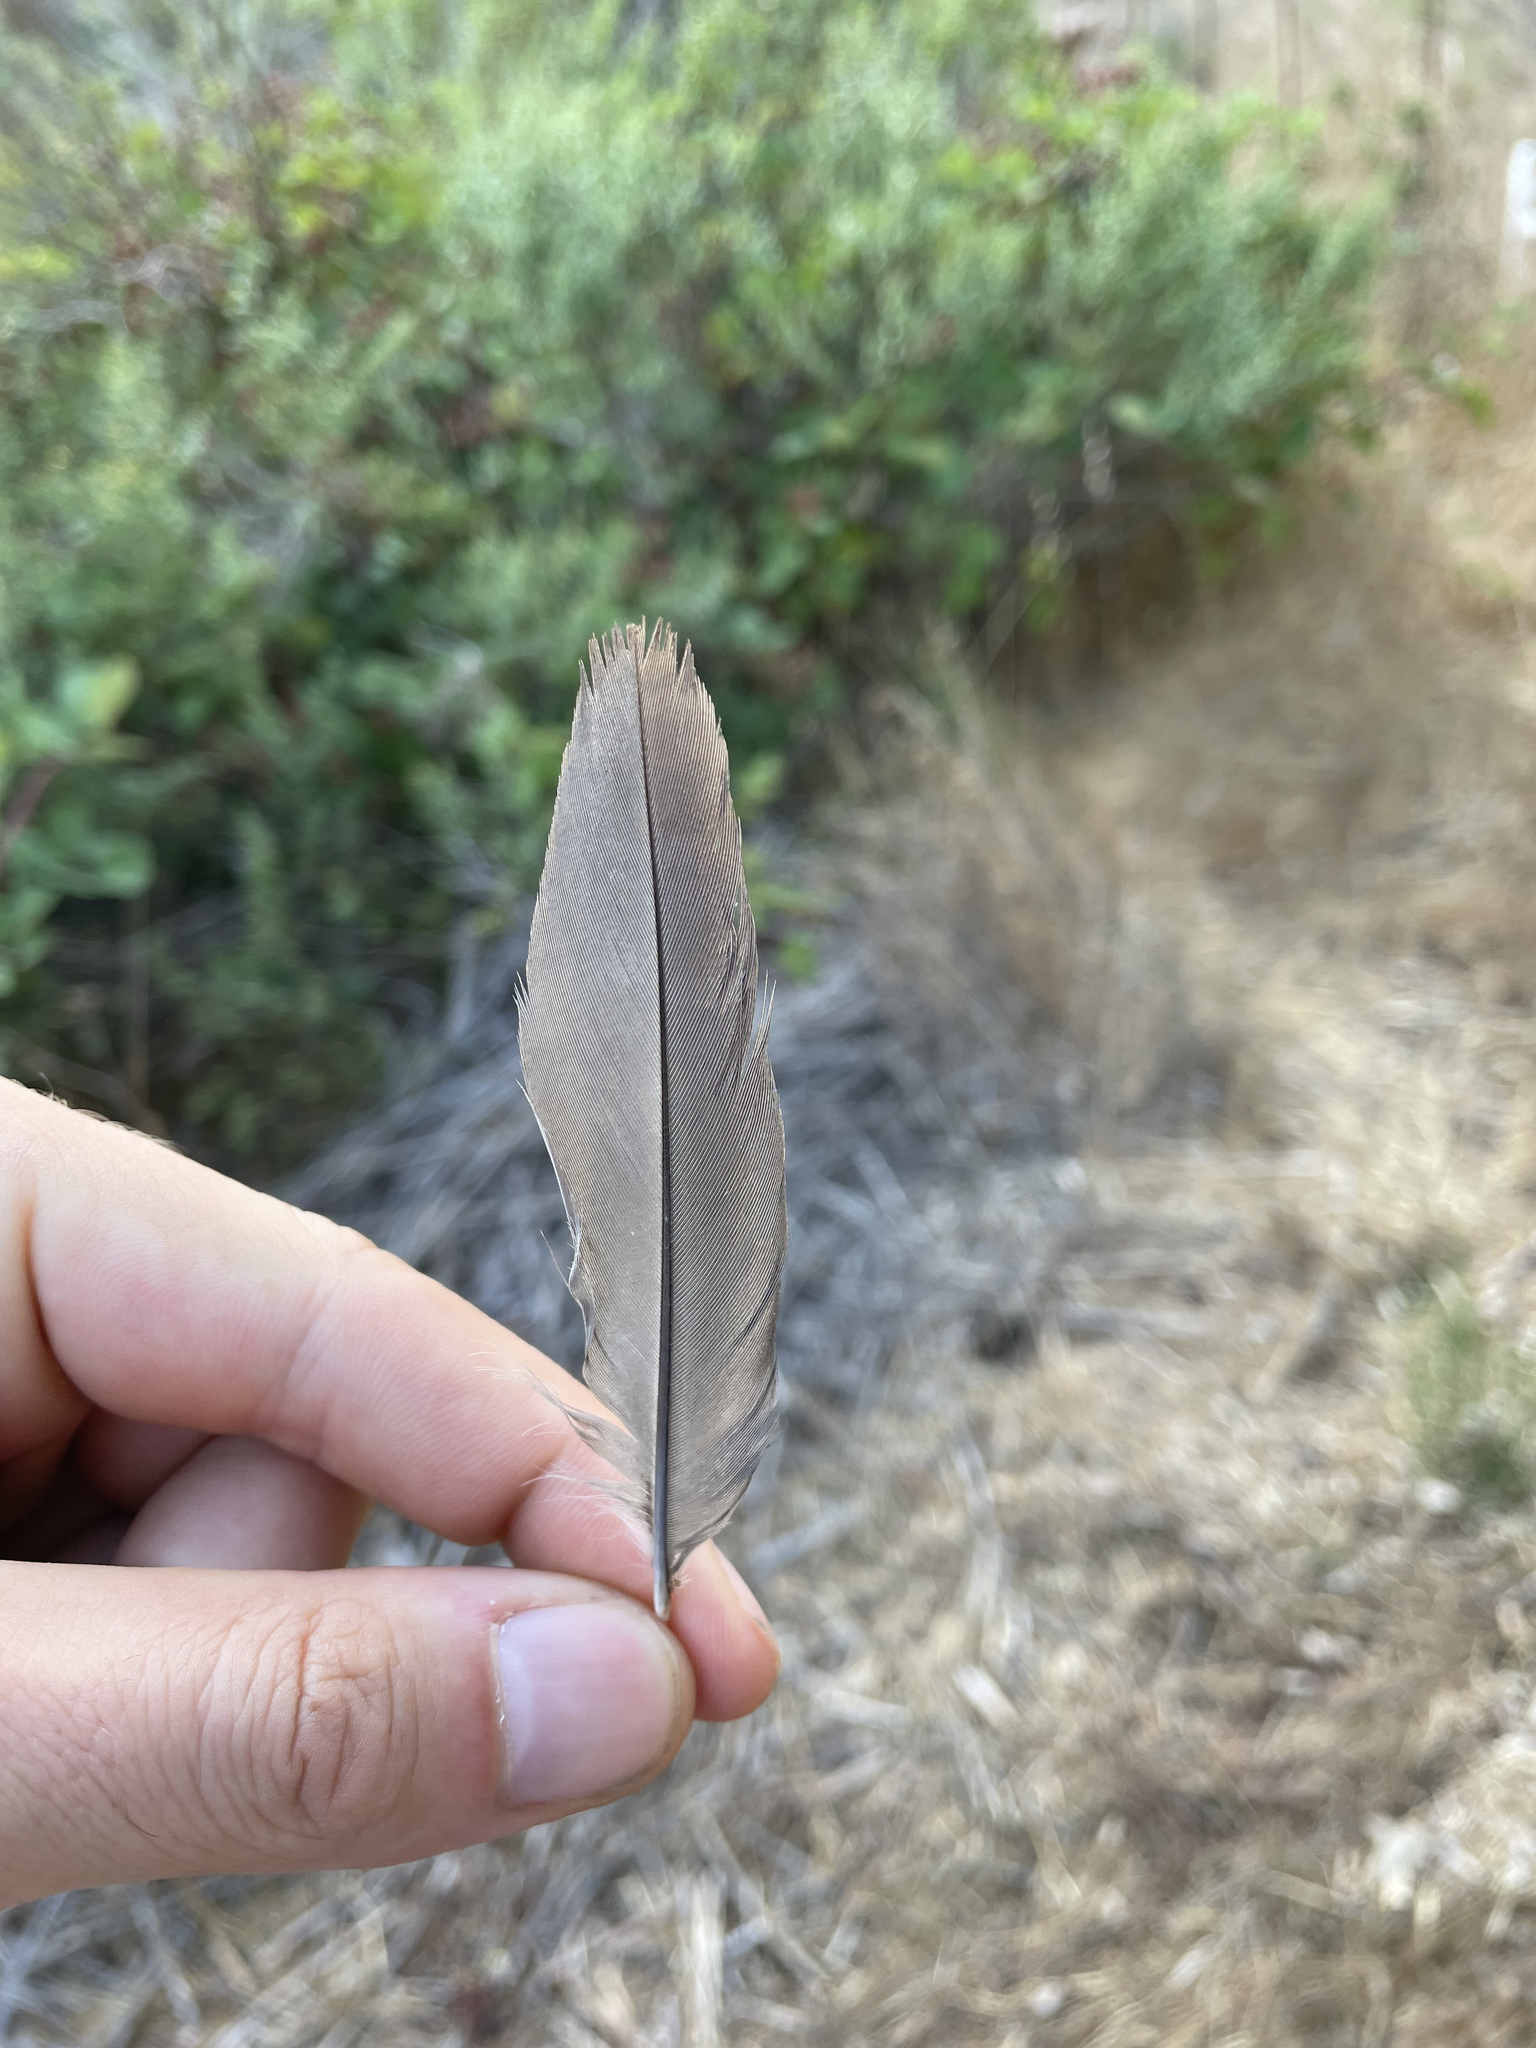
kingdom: Animalia
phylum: Chordata
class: Aves
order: Galliformes
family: Odontophoridae
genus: Callipepla
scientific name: Callipepla californica
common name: California quail
